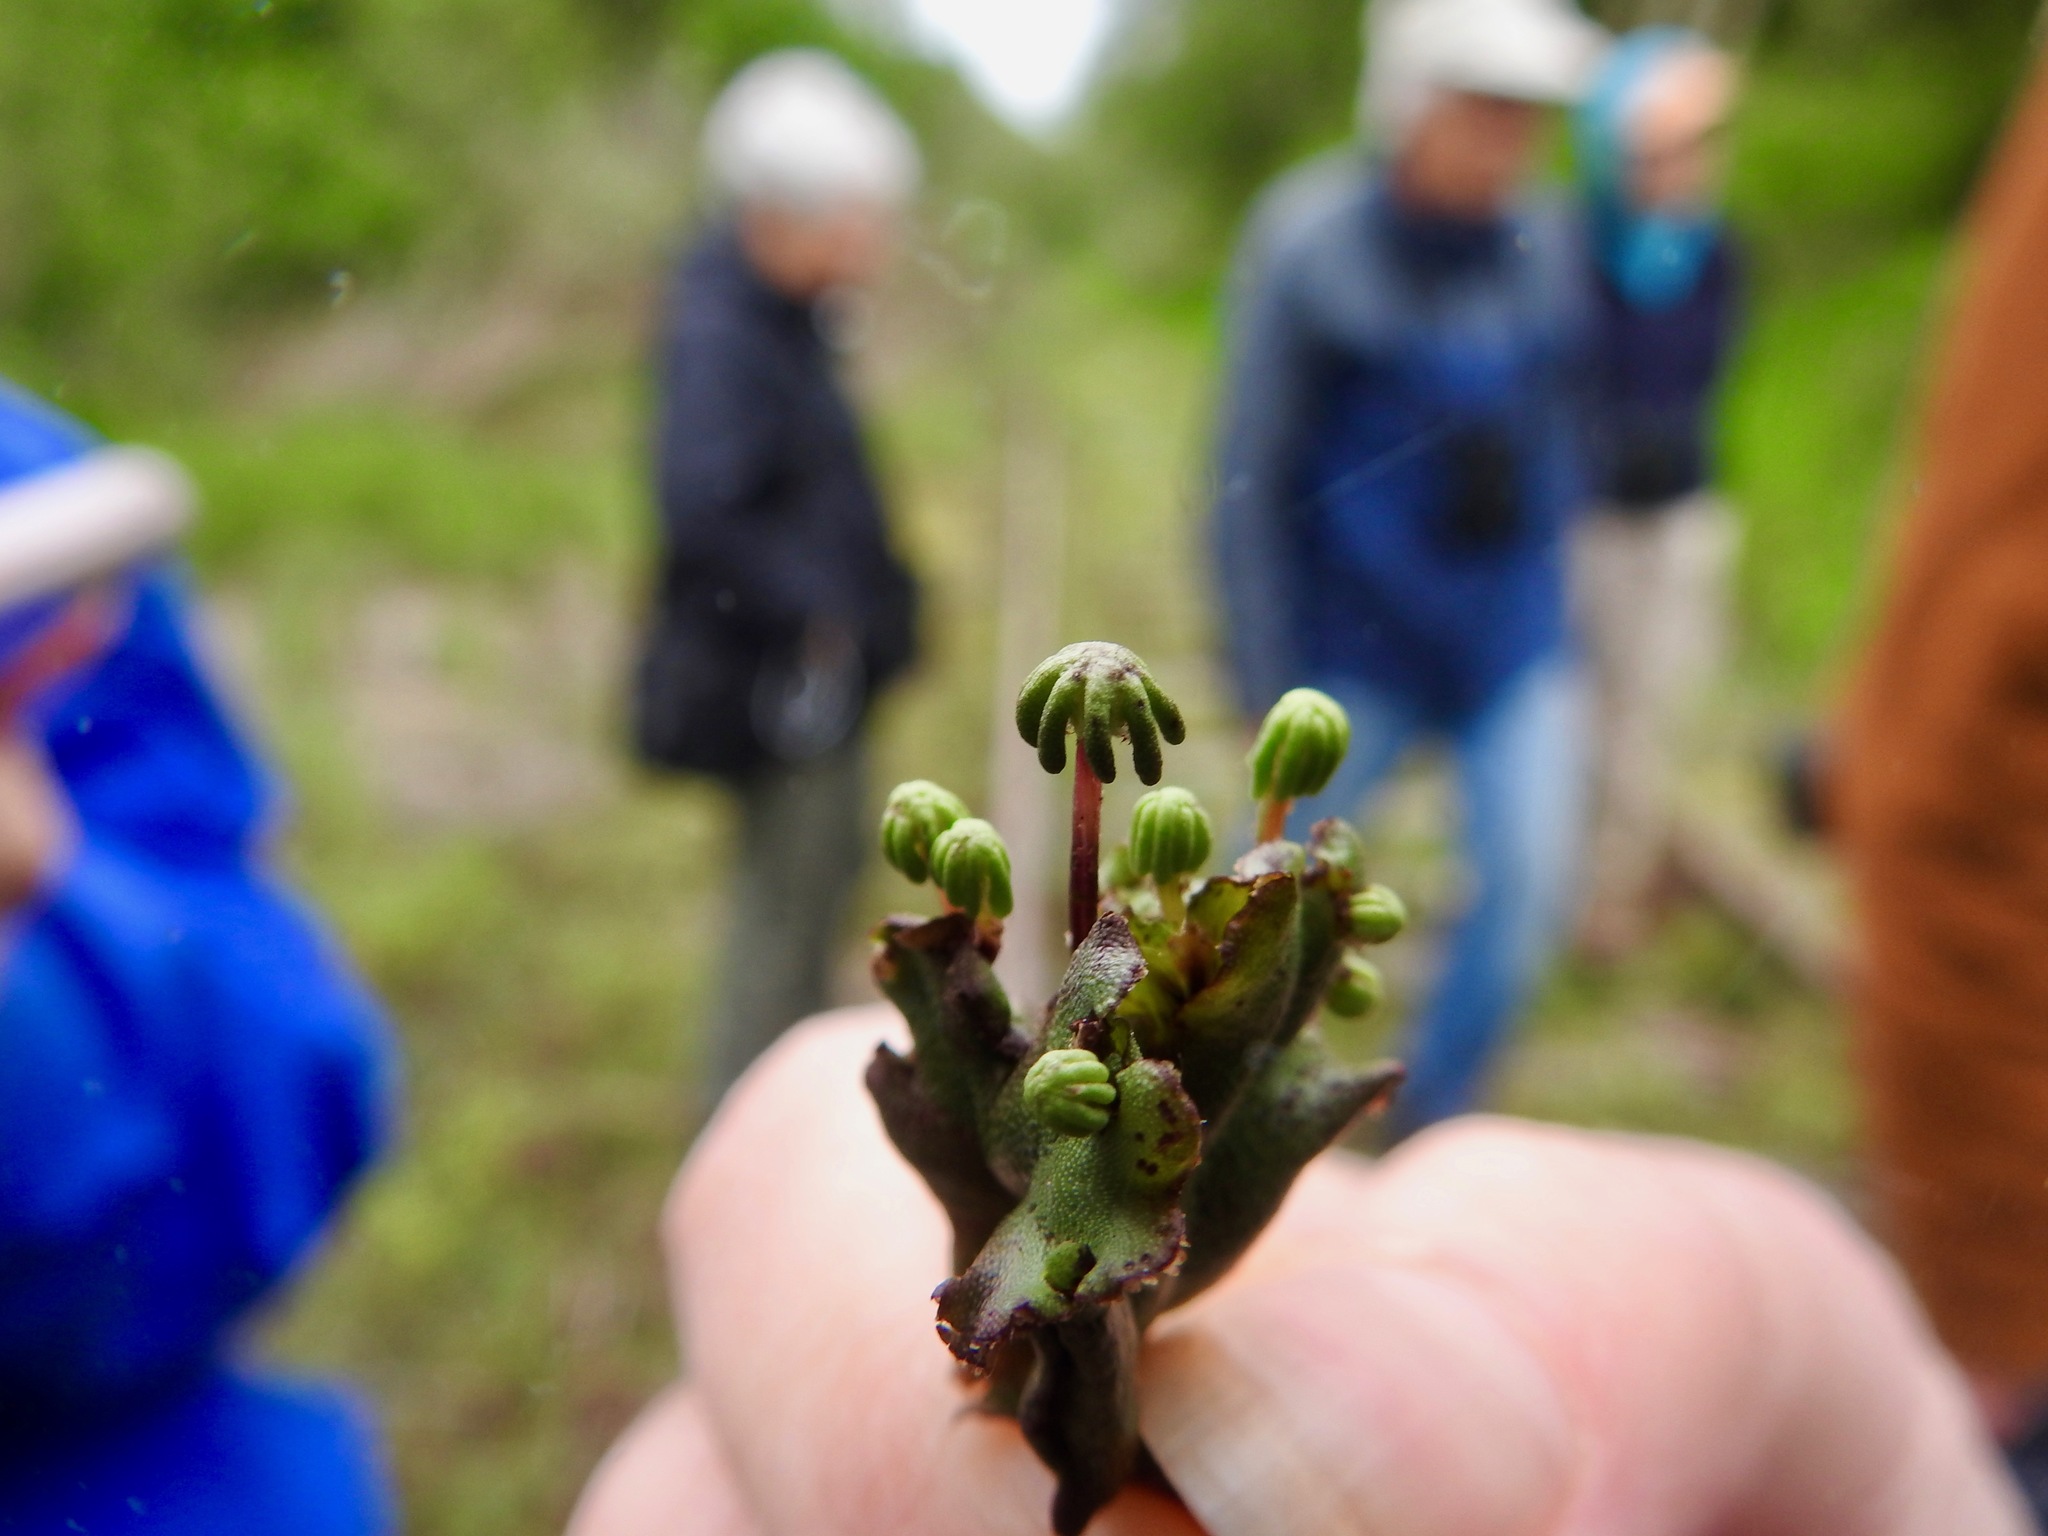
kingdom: Plantae
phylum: Marchantiophyta
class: Marchantiopsida
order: Marchantiales
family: Marchantiaceae
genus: Marchantia
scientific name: Marchantia polymorpha
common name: Common liverwort
